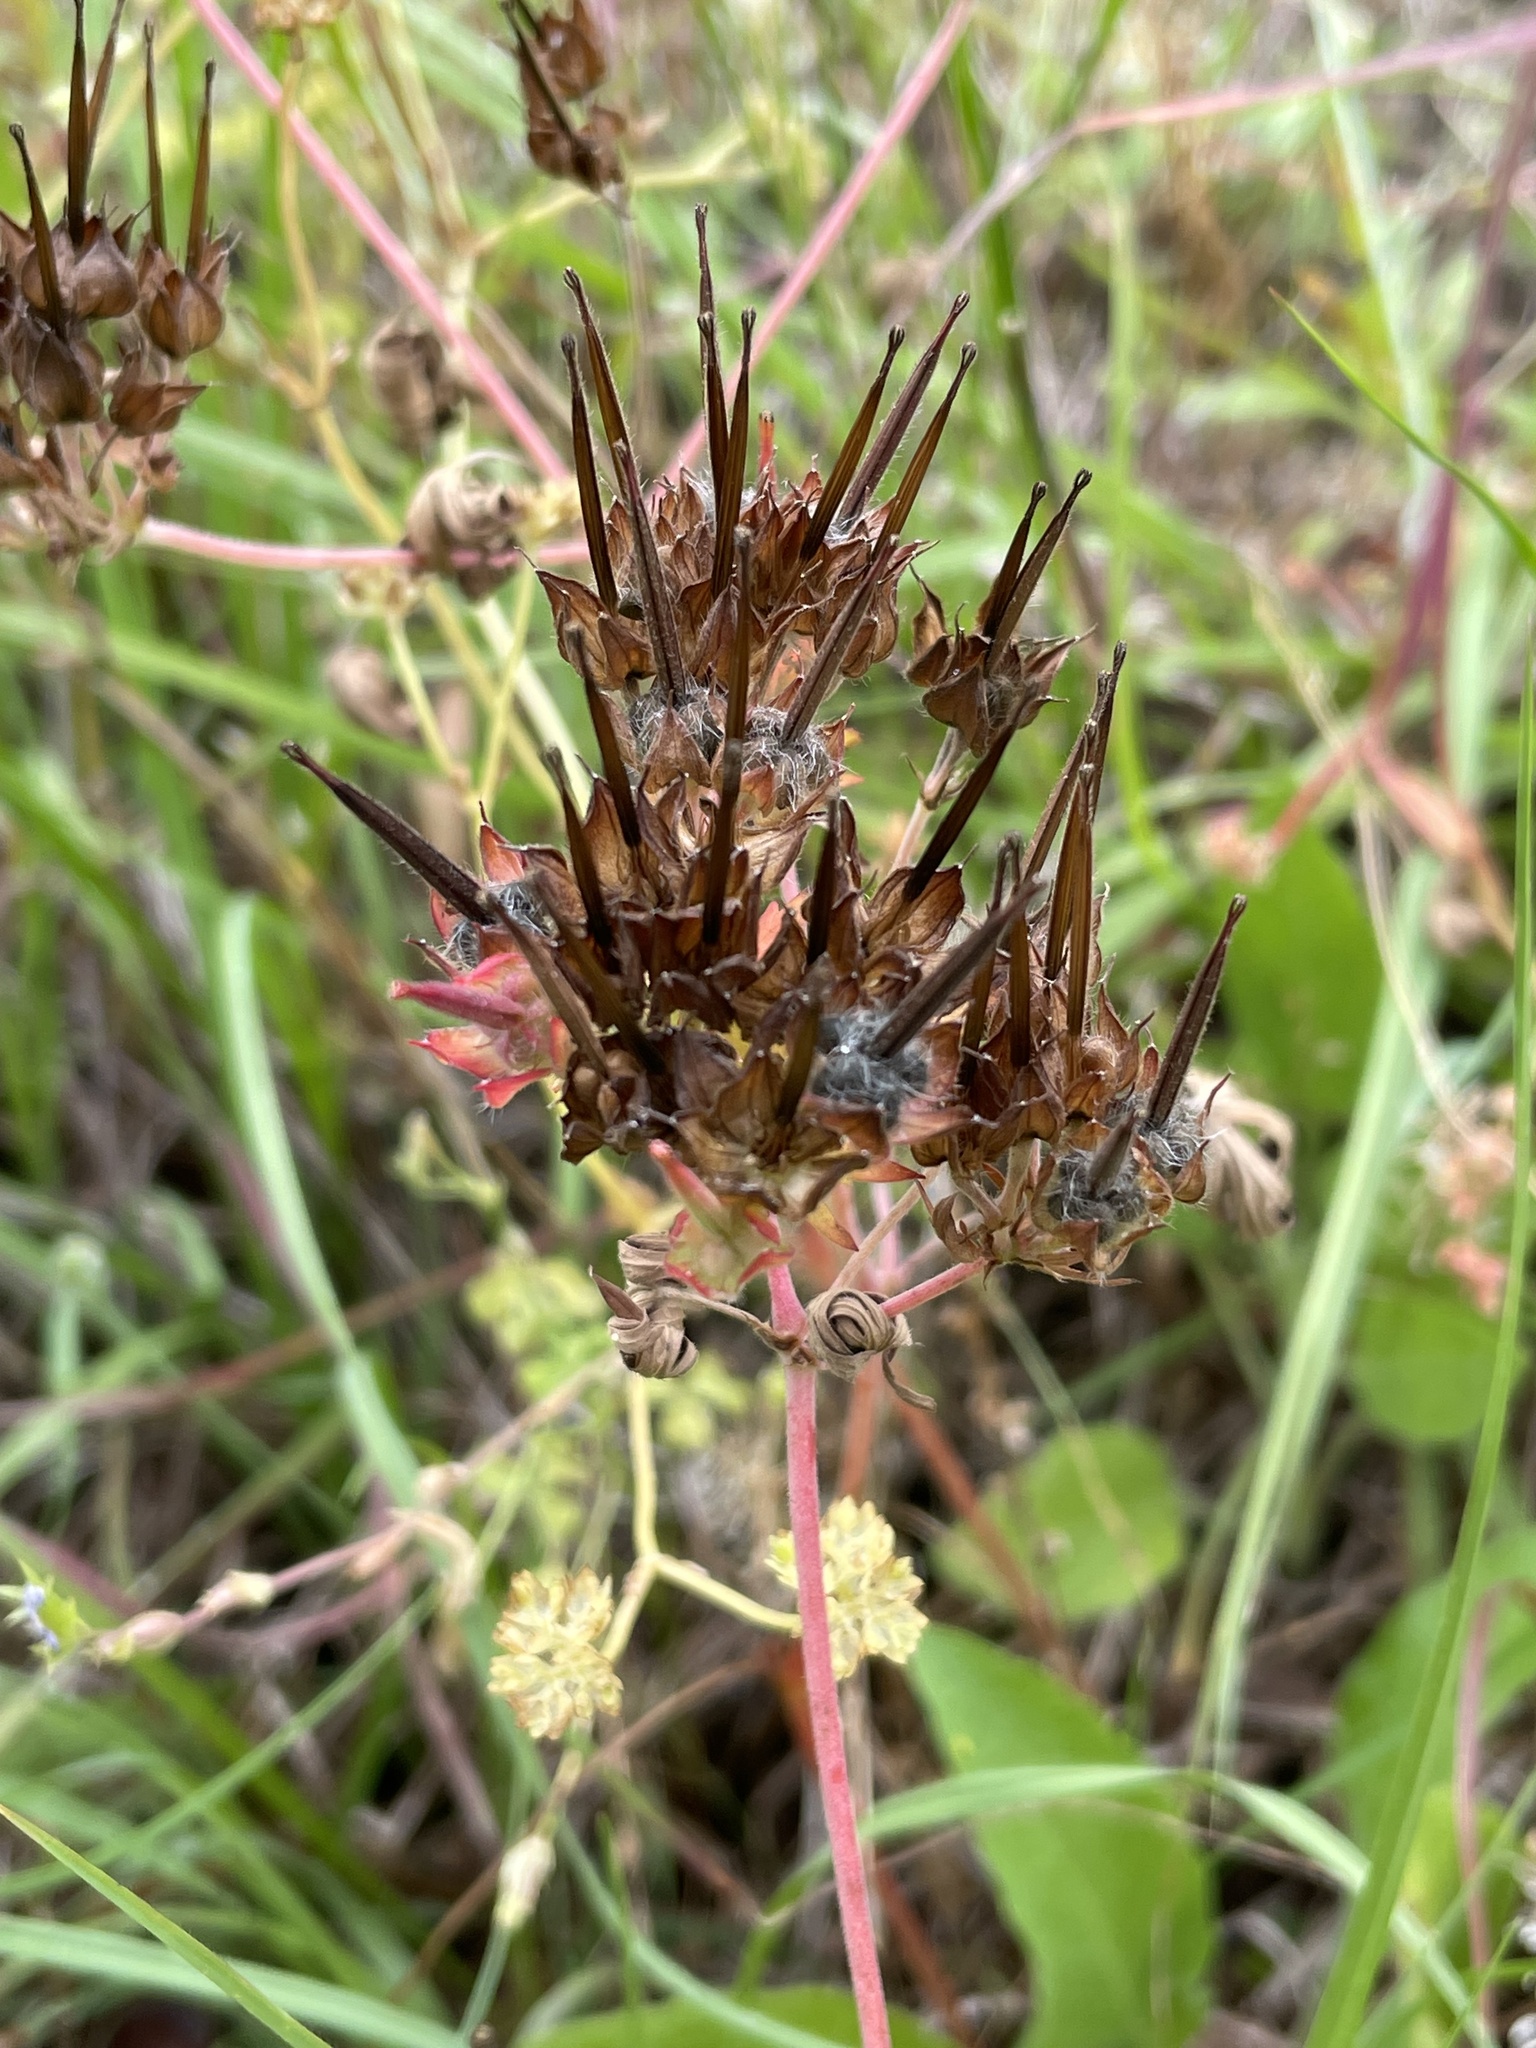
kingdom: Plantae
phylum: Tracheophyta
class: Magnoliopsida
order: Geraniales
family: Geraniaceae
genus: Geranium
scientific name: Geranium carolinianum
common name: Carolina crane's-bill
